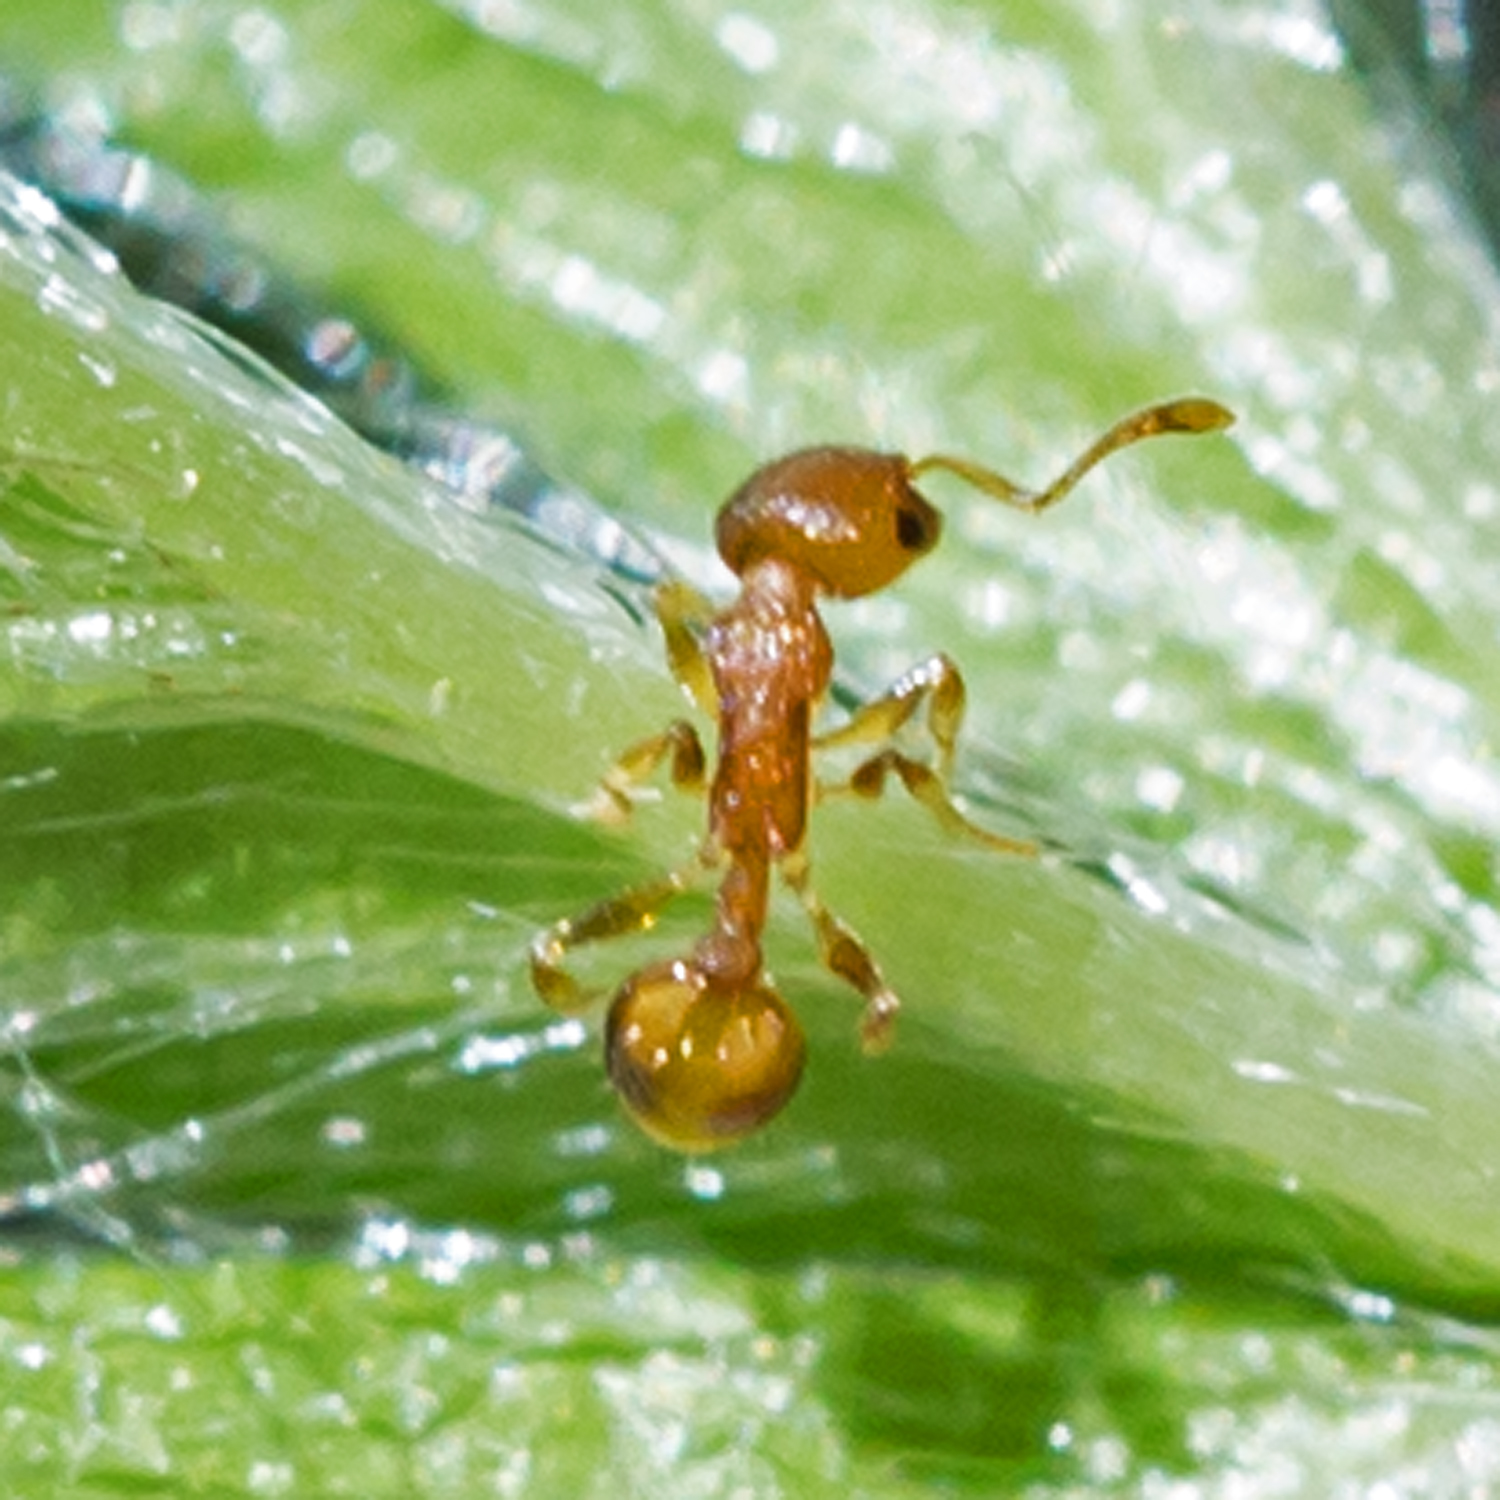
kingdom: Animalia
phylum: Arthropoda
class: Insecta
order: Hymenoptera
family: Formicidae
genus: Temnothorax
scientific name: Temnothorax curvispinosus
